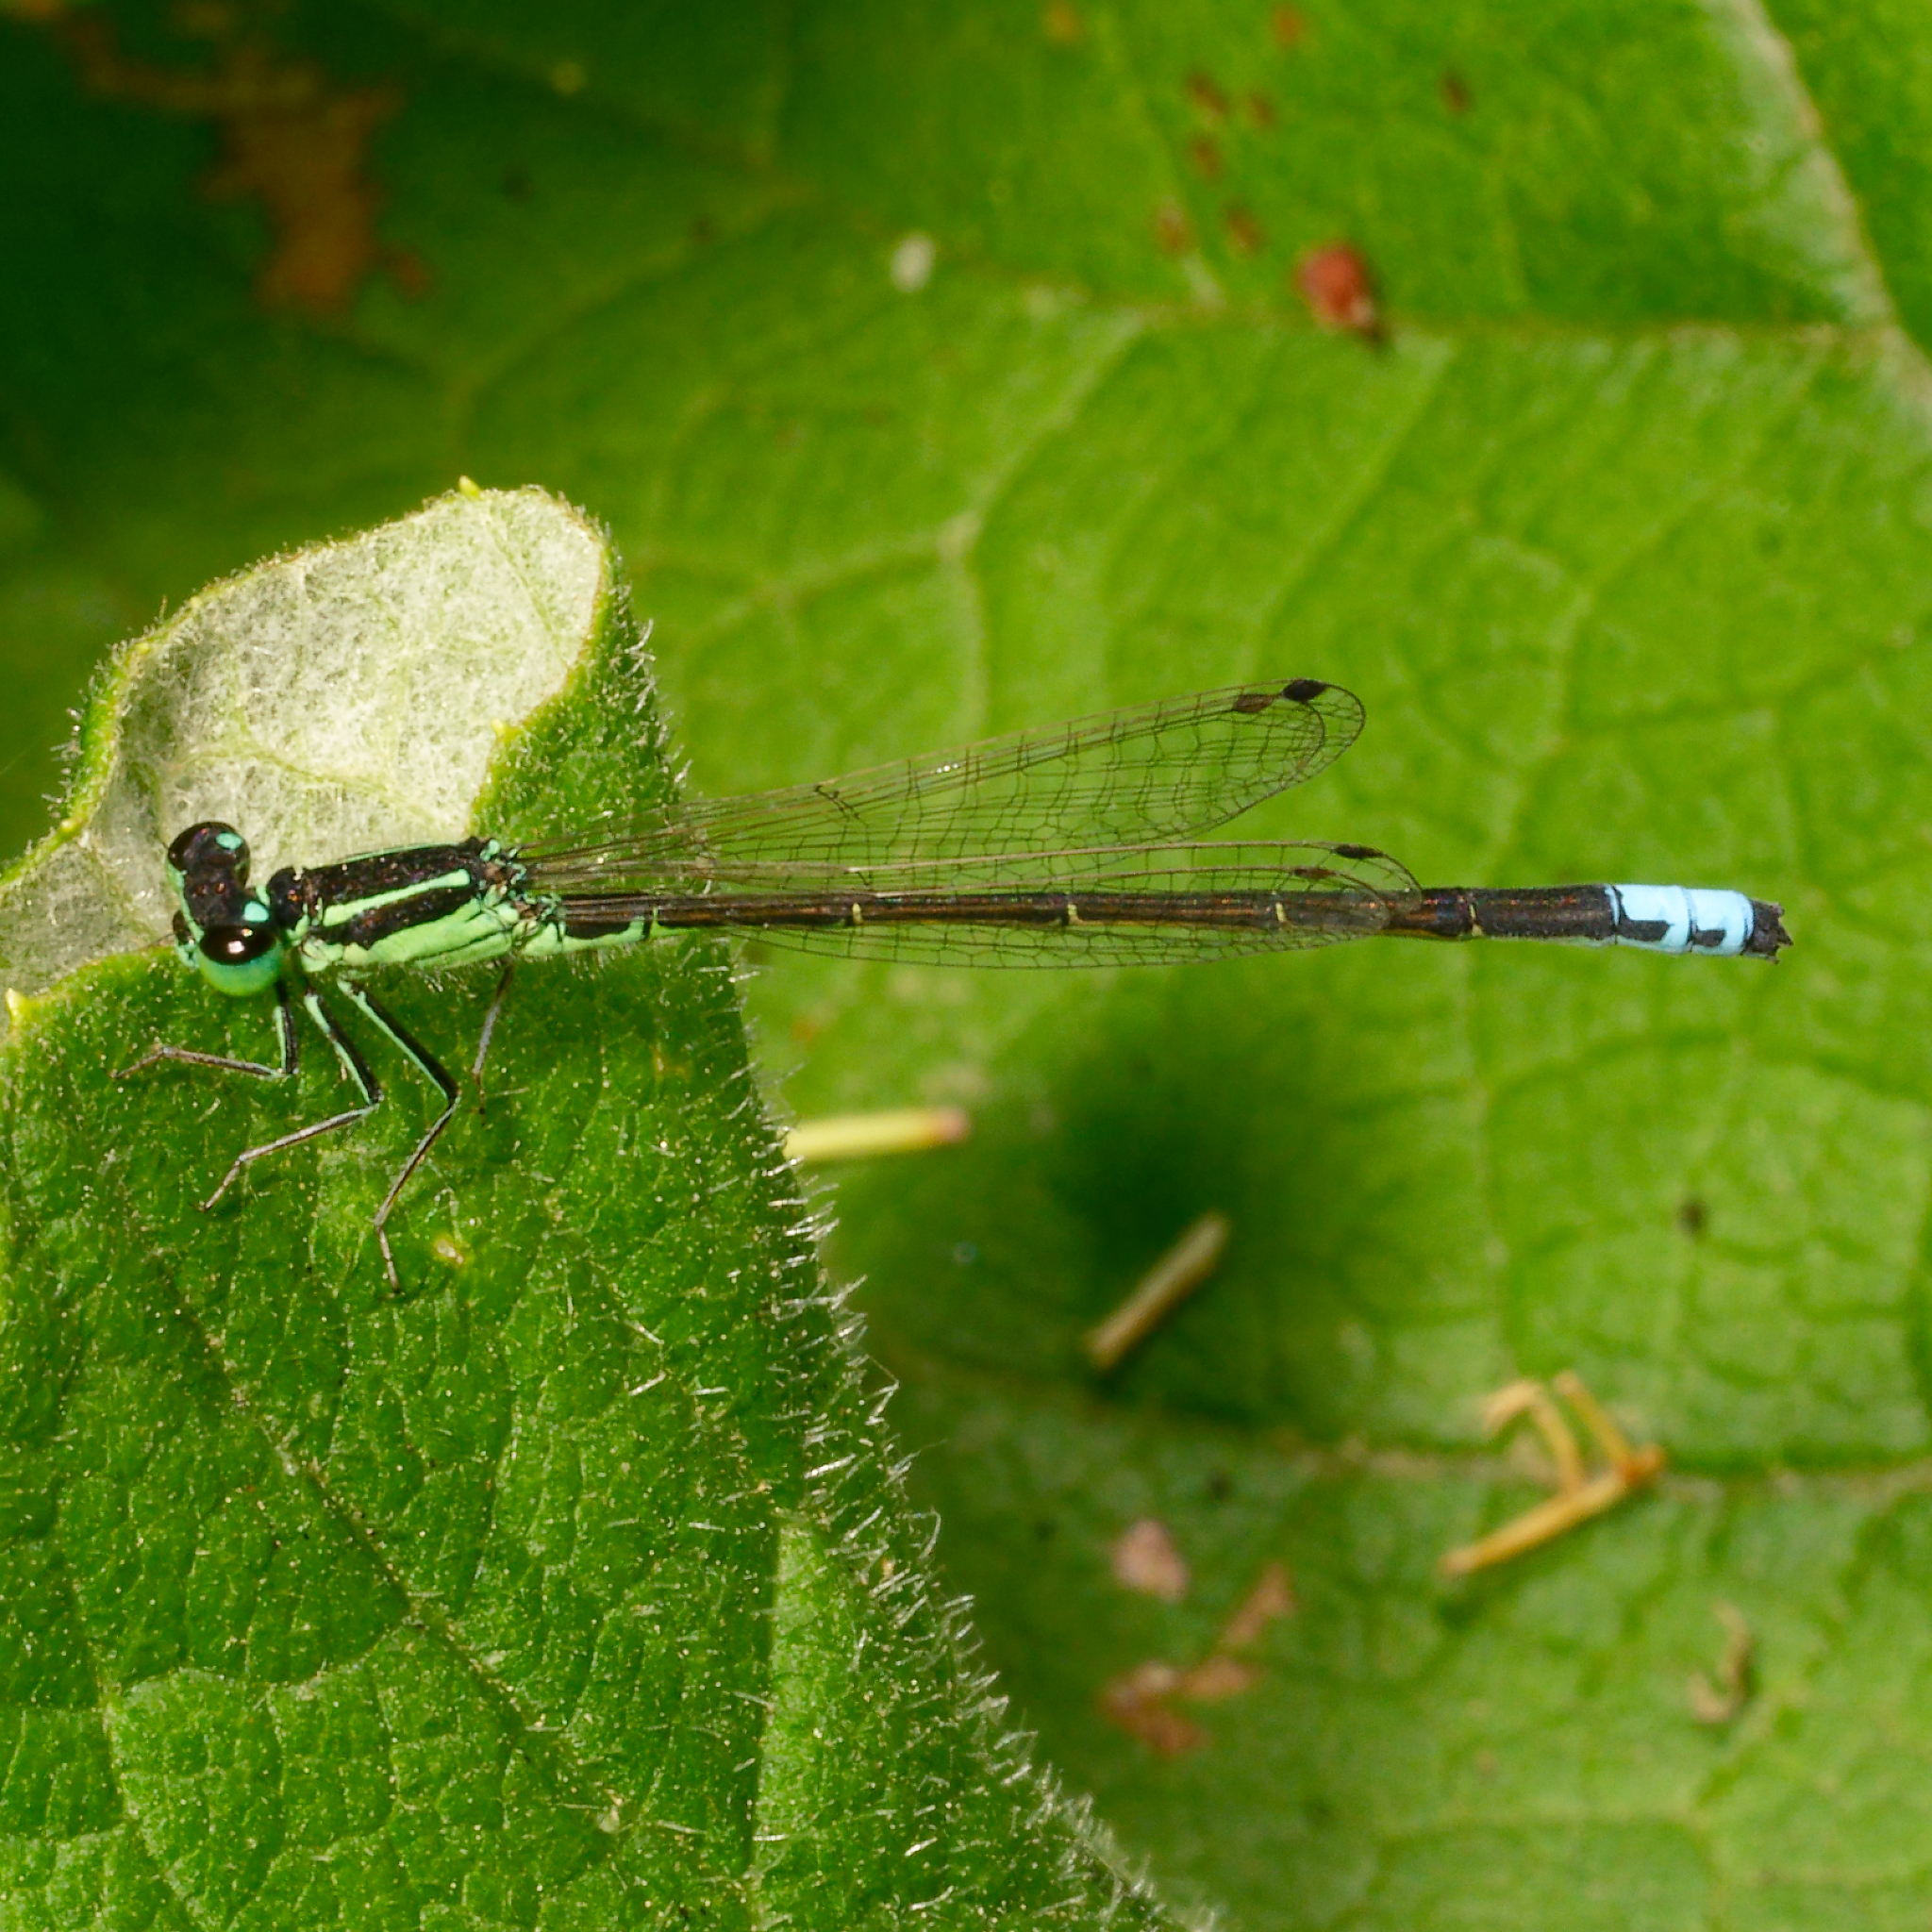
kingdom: Animalia
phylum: Arthropoda
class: Insecta
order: Odonata
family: Coenagrionidae
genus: Ischnura
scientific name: Ischnura verticalis
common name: Eastern forktail
